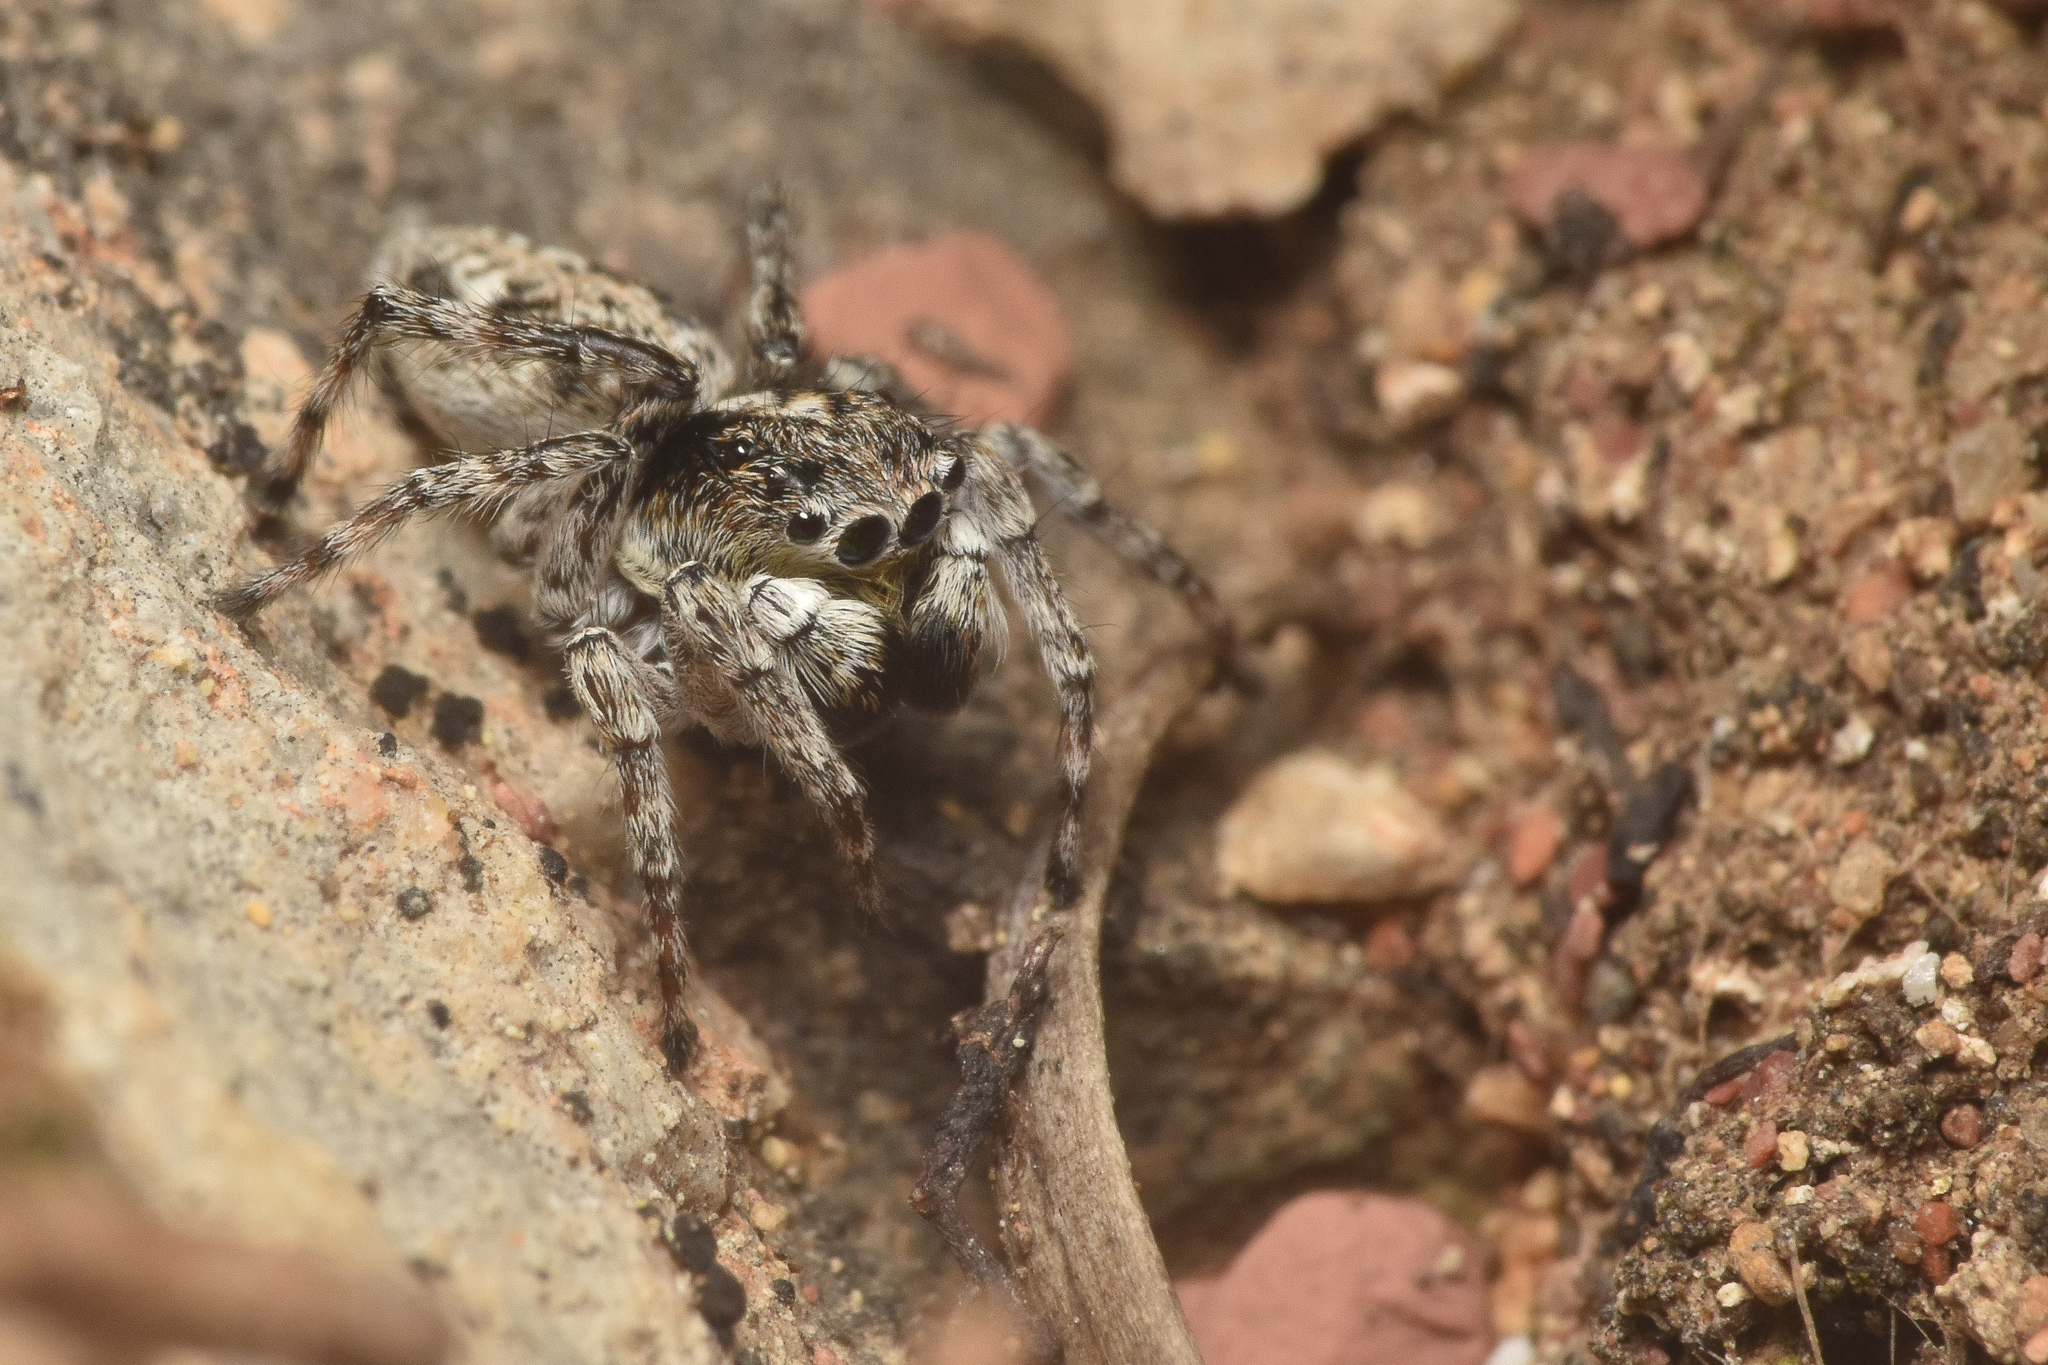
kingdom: Animalia
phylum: Arthropoda
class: Arachnida
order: Araneae
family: Salticidae
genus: Attulus
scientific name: Attulus finschi
